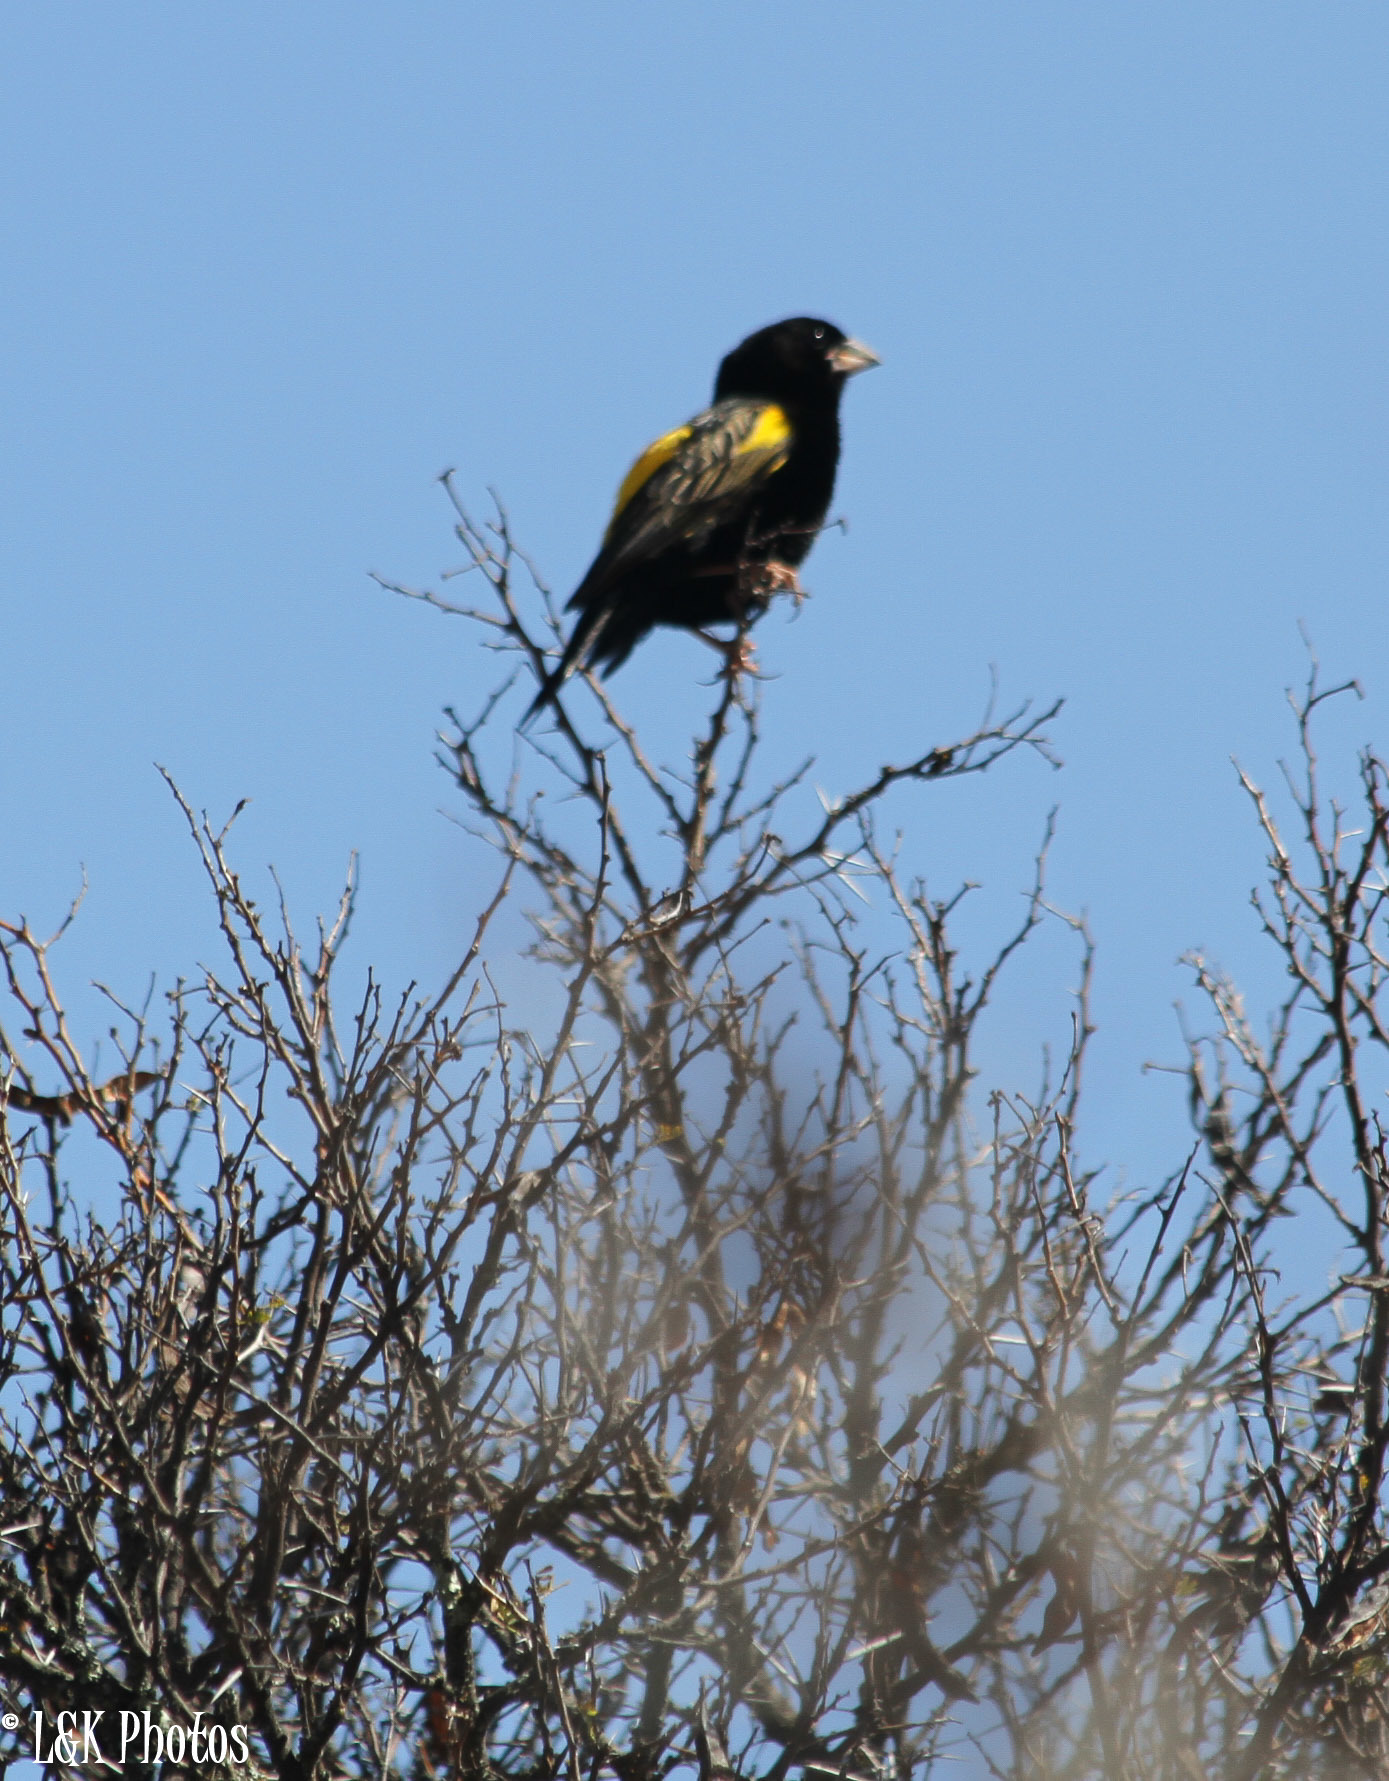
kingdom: Animalia
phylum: Chordata
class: Aves
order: Passeriformes
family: Ploceidae
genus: Euplectes
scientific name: Euplectes capensis
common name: Yellow bishop
